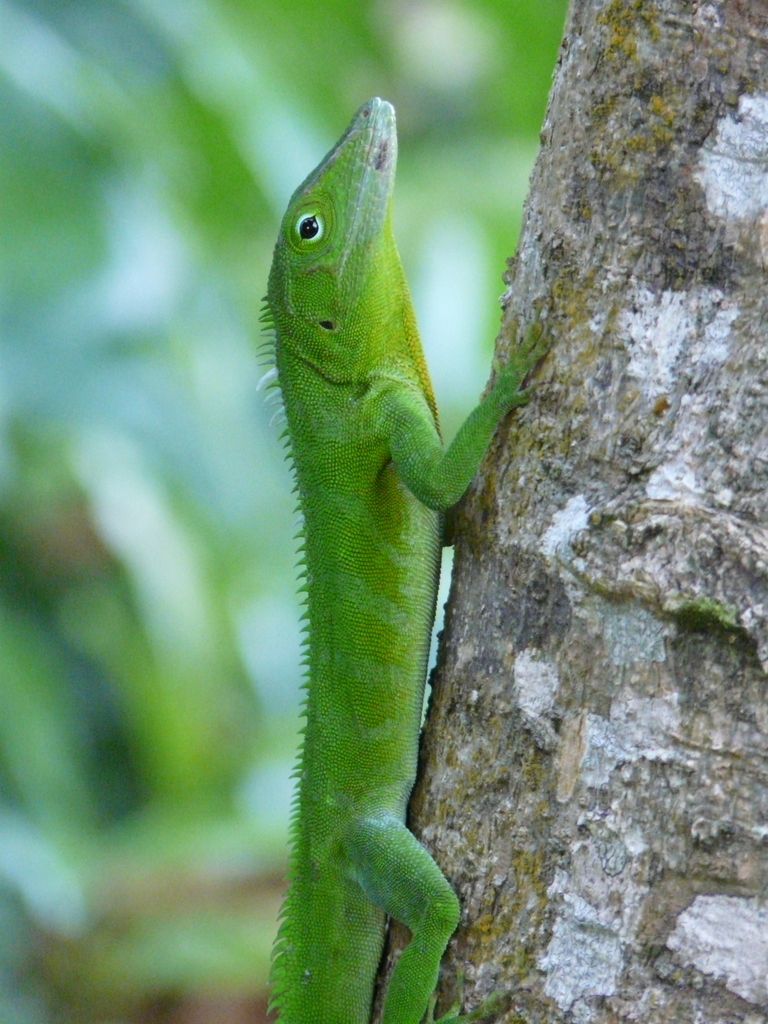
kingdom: Animalia
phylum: Chordata
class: Squamata
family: Dactyloidae
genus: Anolis
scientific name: Anolis garmani
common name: Jamaican giant anole
